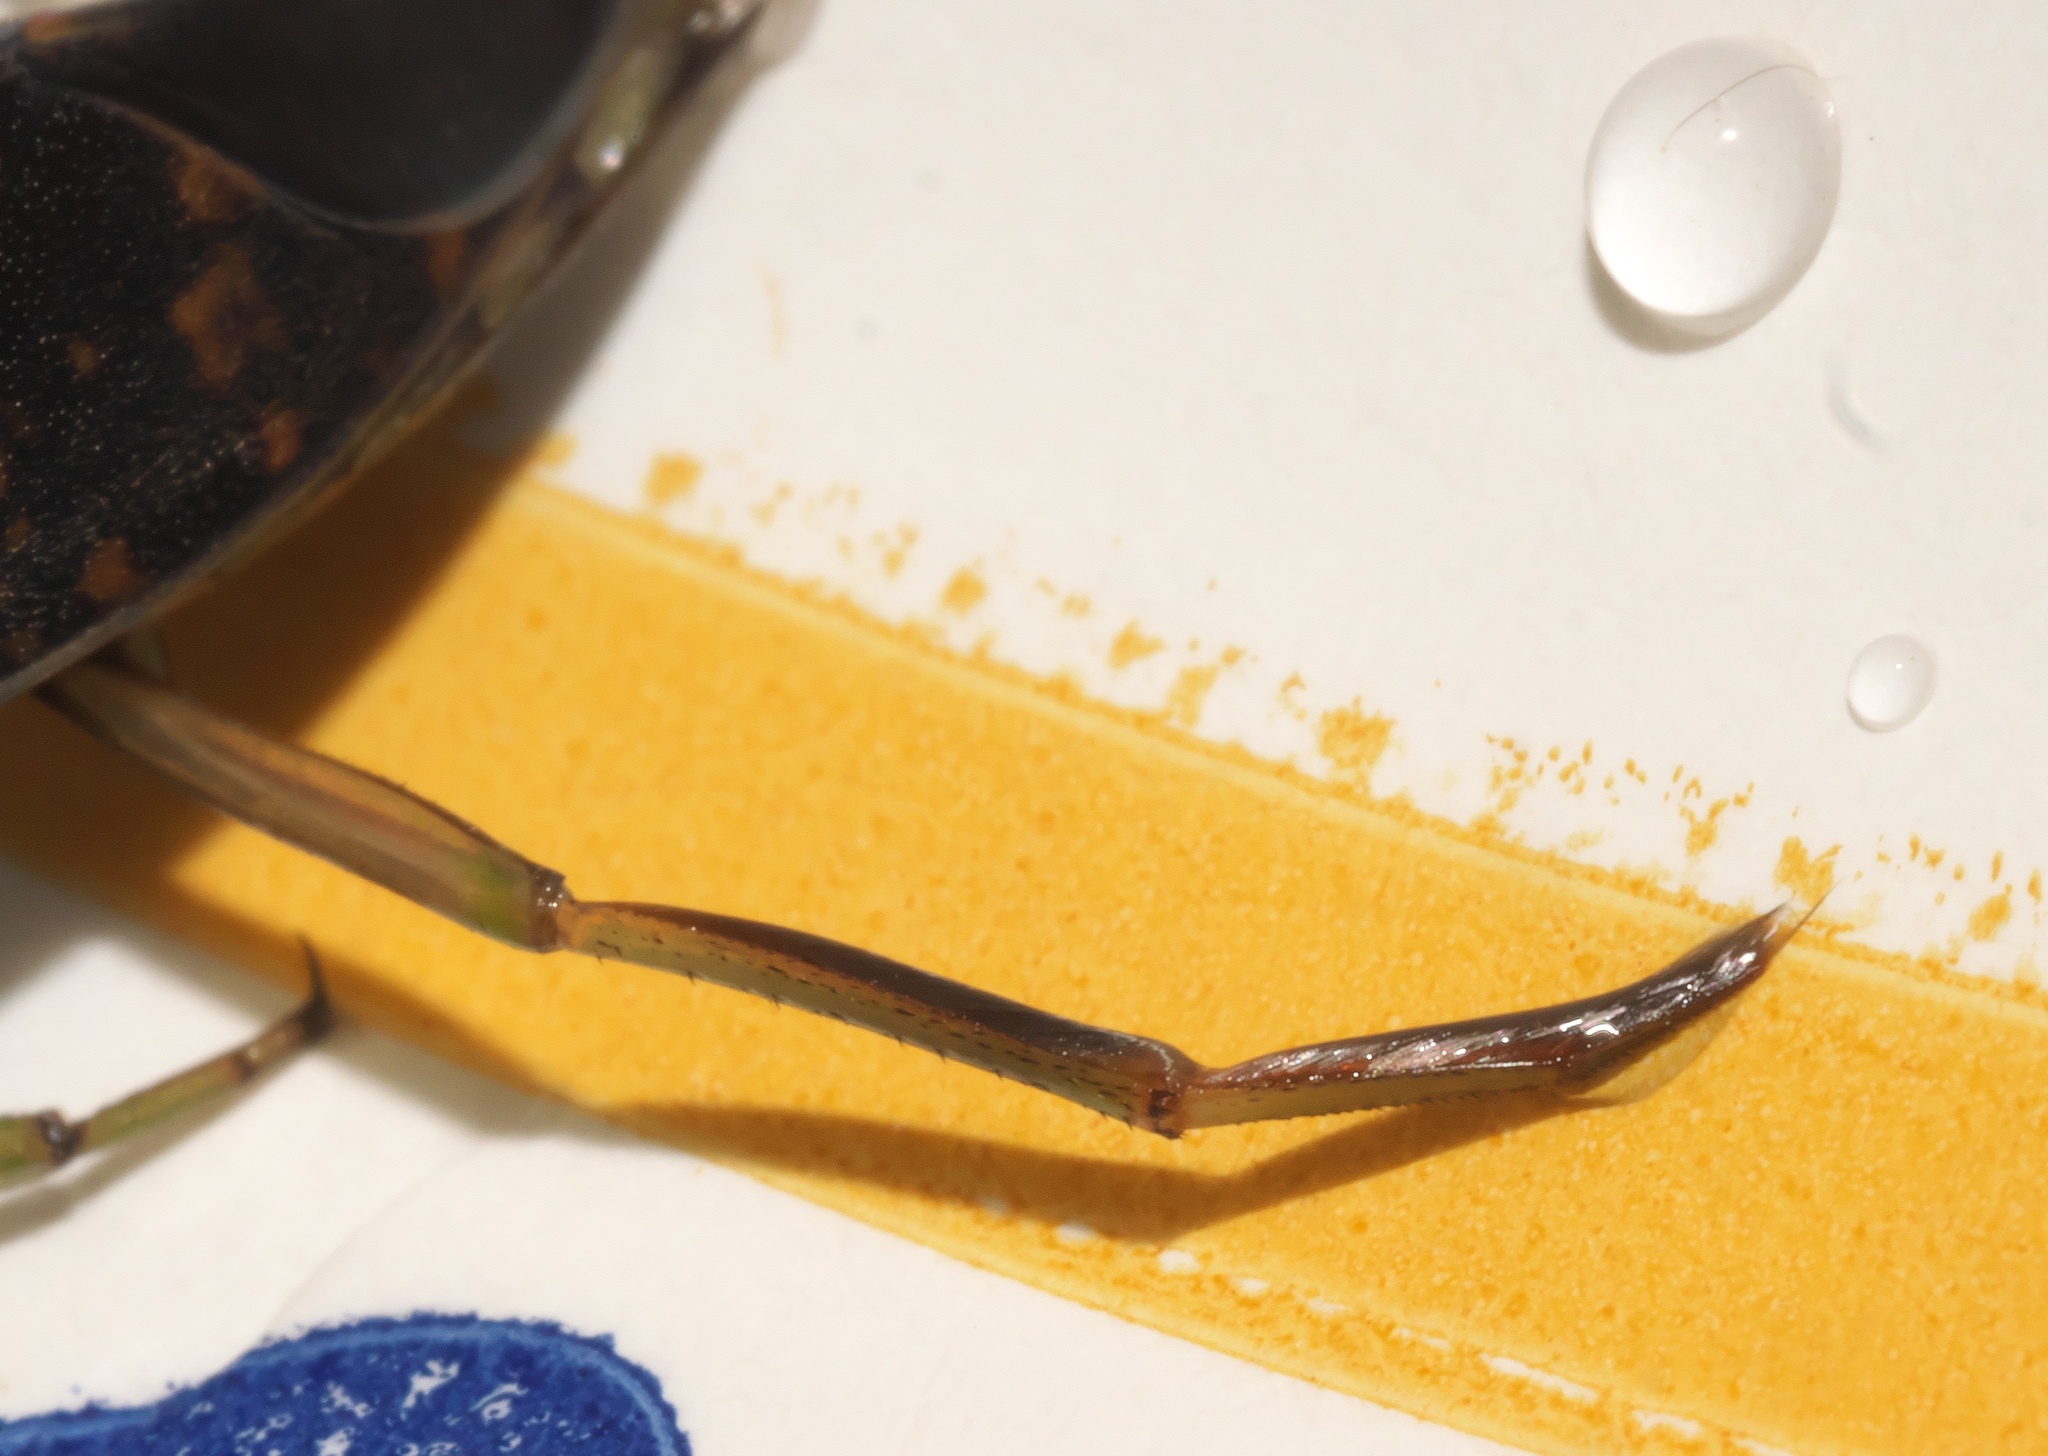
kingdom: Animalia
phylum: Arthropoda
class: Insecta
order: Hemiptera
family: Notonectidae
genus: Notonecta
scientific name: Notonecta irrorata
